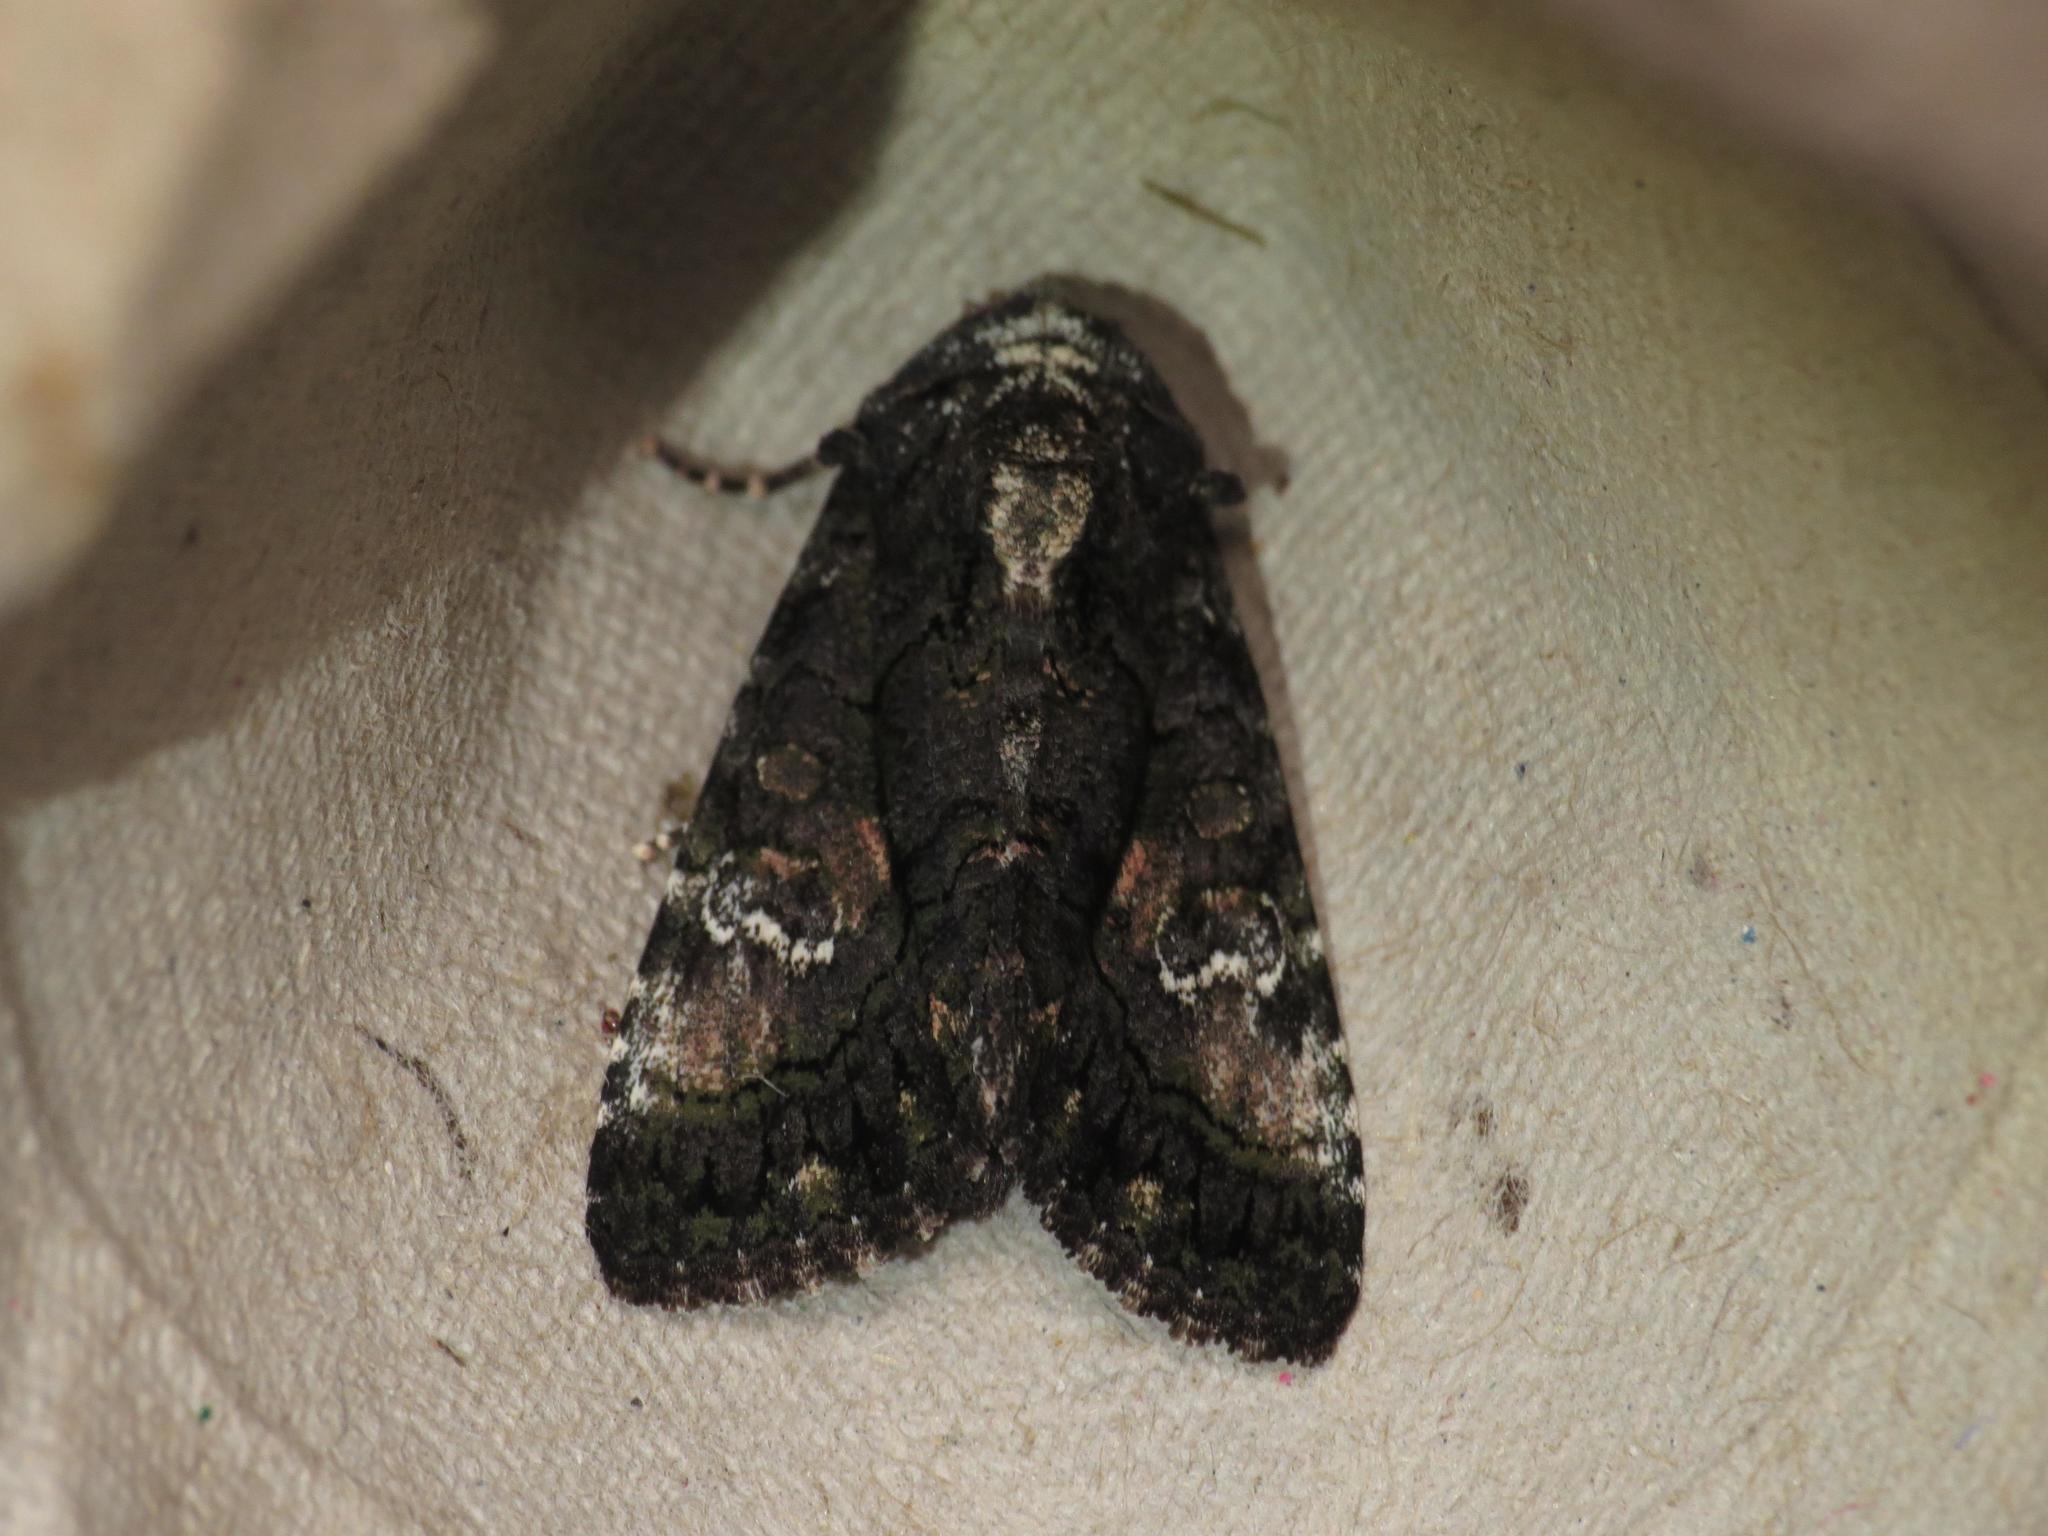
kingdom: Animalia
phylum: Arthropoda
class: Insecta
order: Lepidoptera
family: Noctuidae
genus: Aedia
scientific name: Aedia leucomelas
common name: Sorcerer
